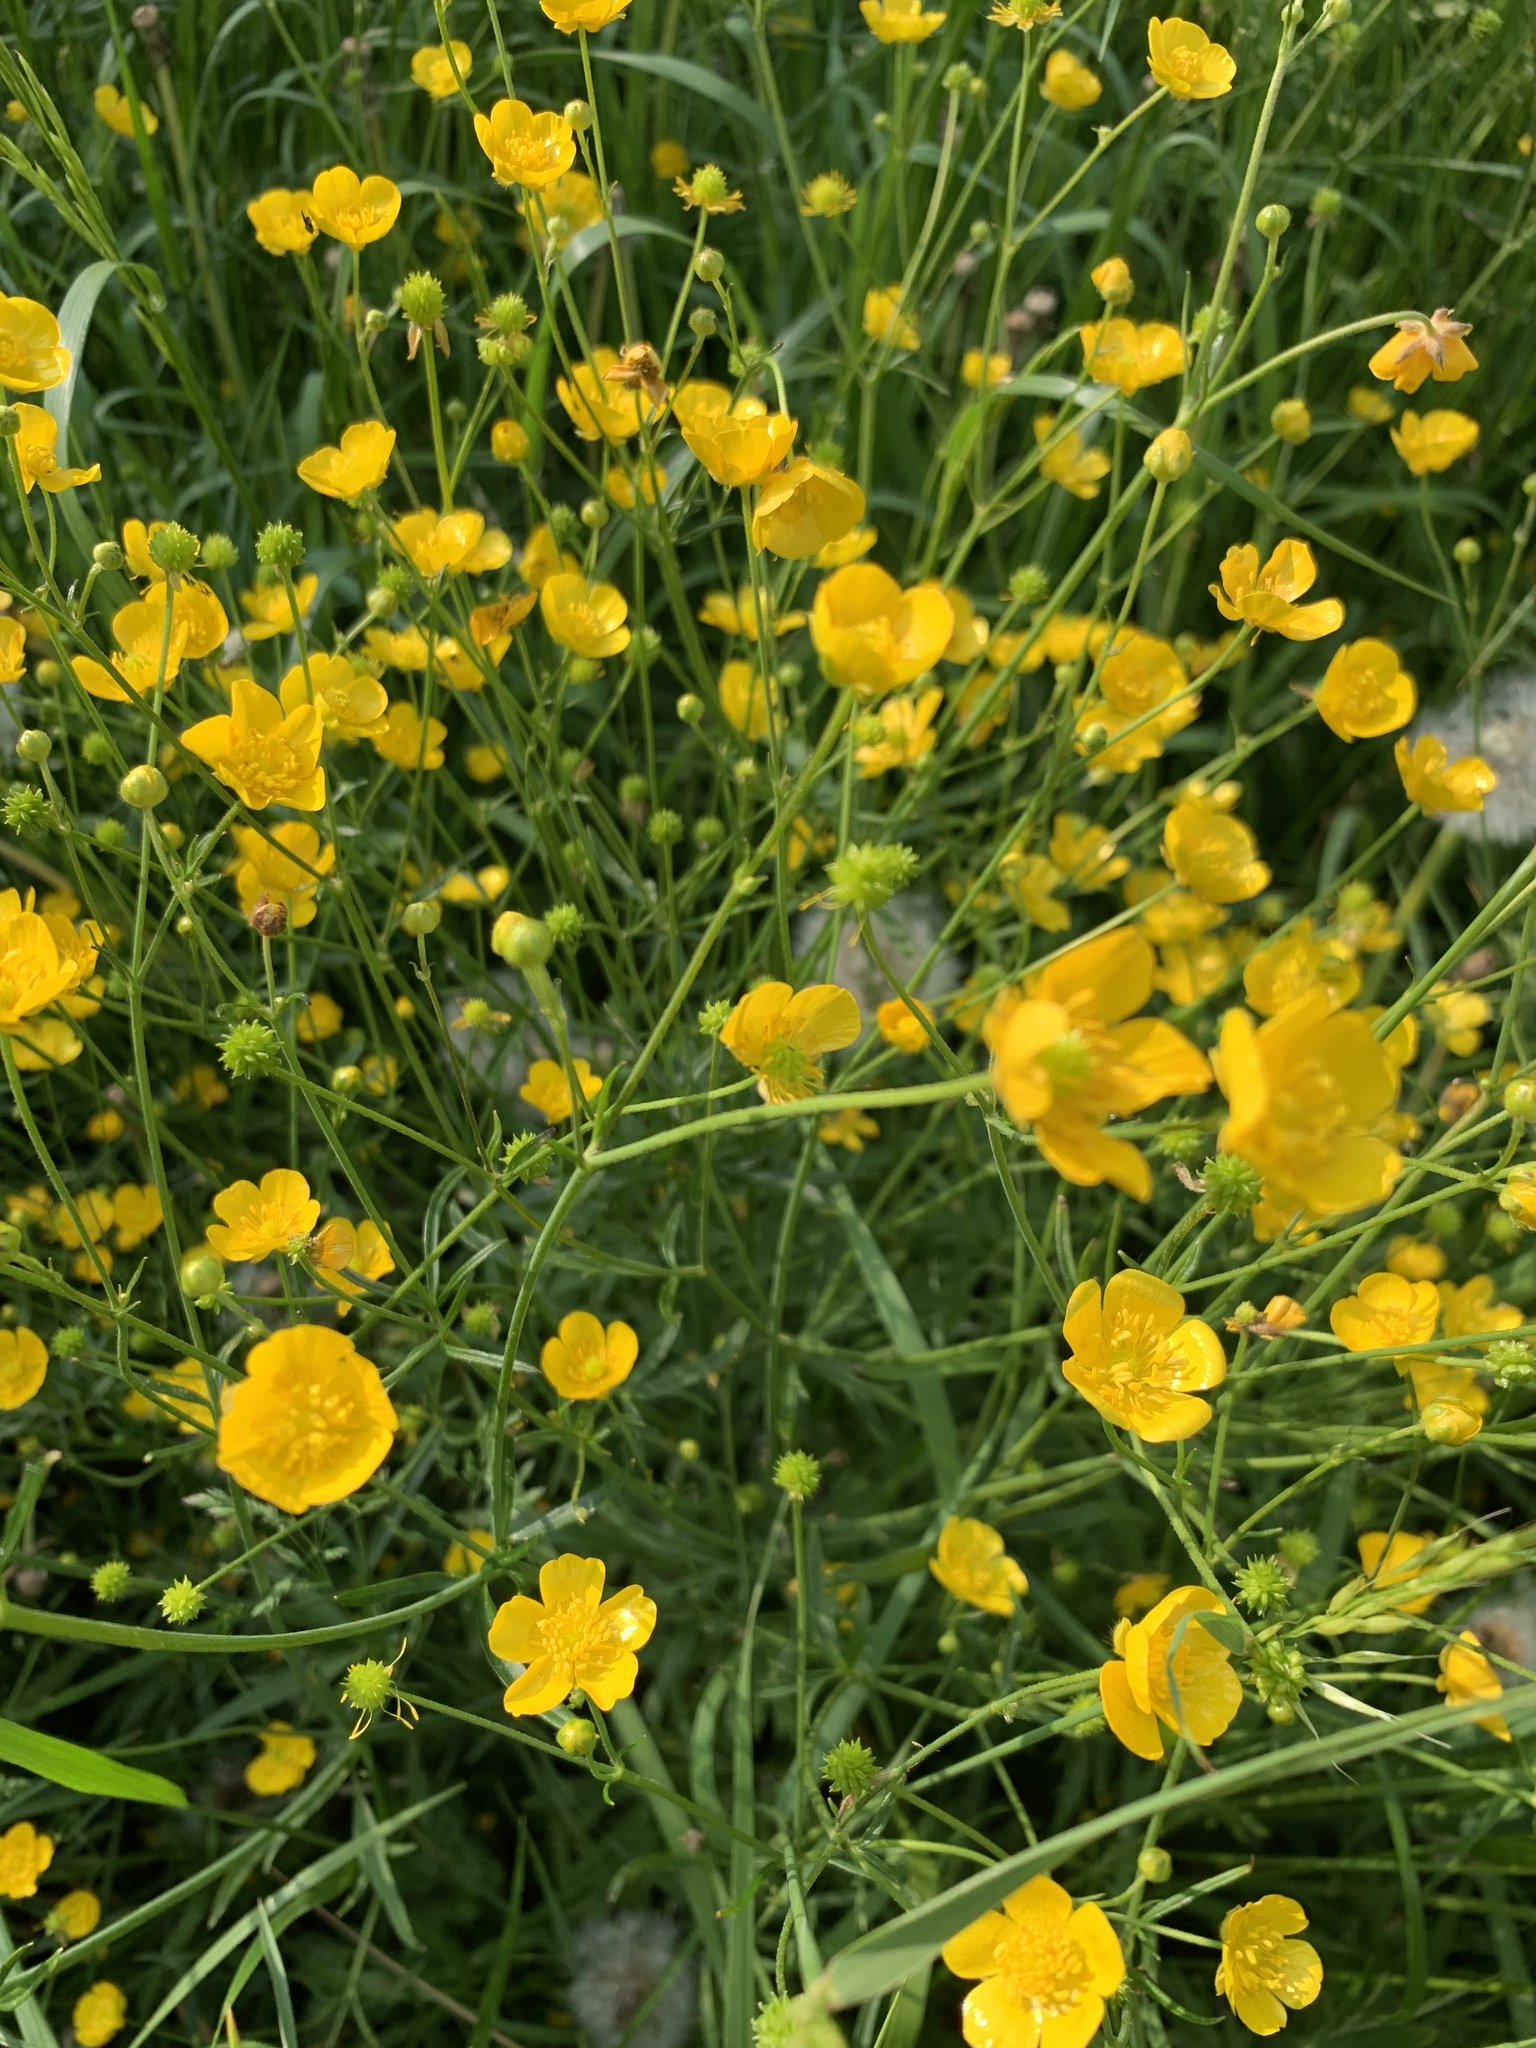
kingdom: Plantae
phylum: Tracheophyta
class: Magnoliopsida
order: Ranunculales
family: Ranunculaceae
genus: Ranunculus
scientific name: Ranunculus acris
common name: Meadow buttercup
